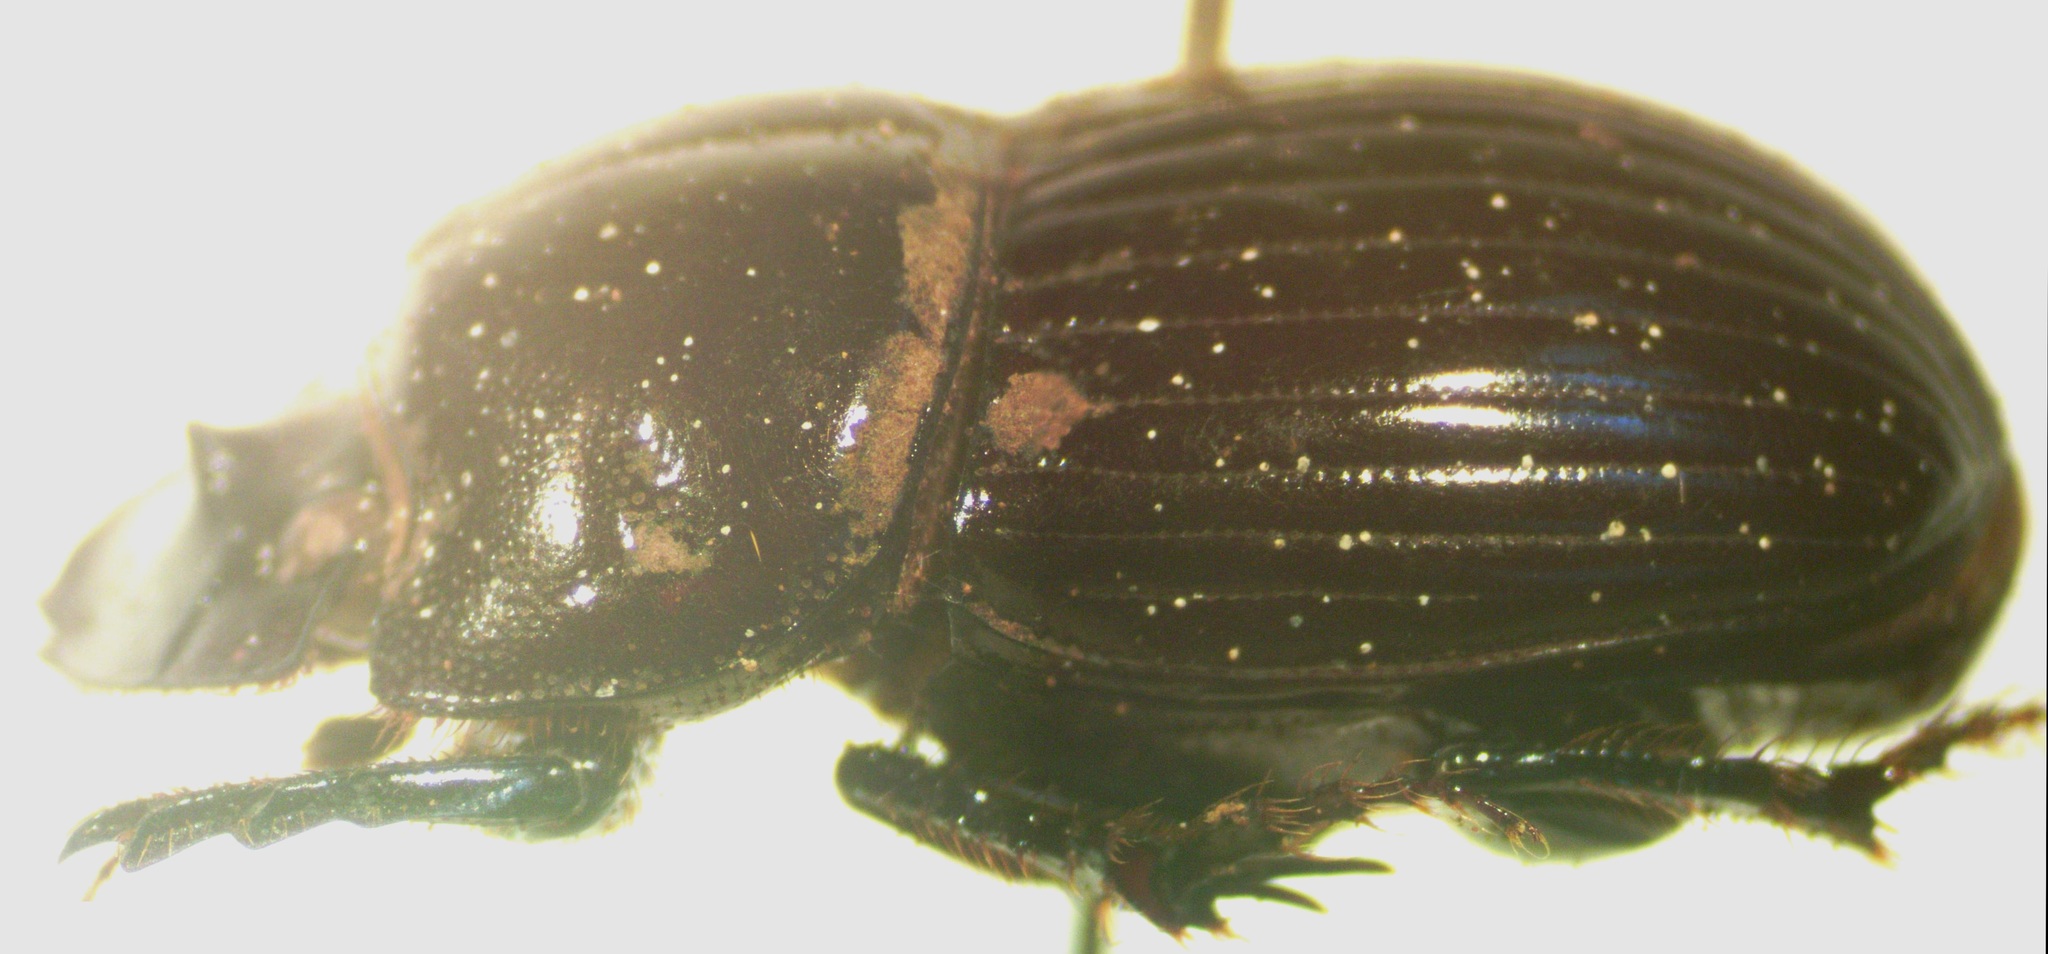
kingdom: Animalia
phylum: Arthropoda
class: Insecta
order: Coleoptera
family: Scarabaeidae
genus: Copris
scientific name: Copris incertus
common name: Uncertain dung beetle
